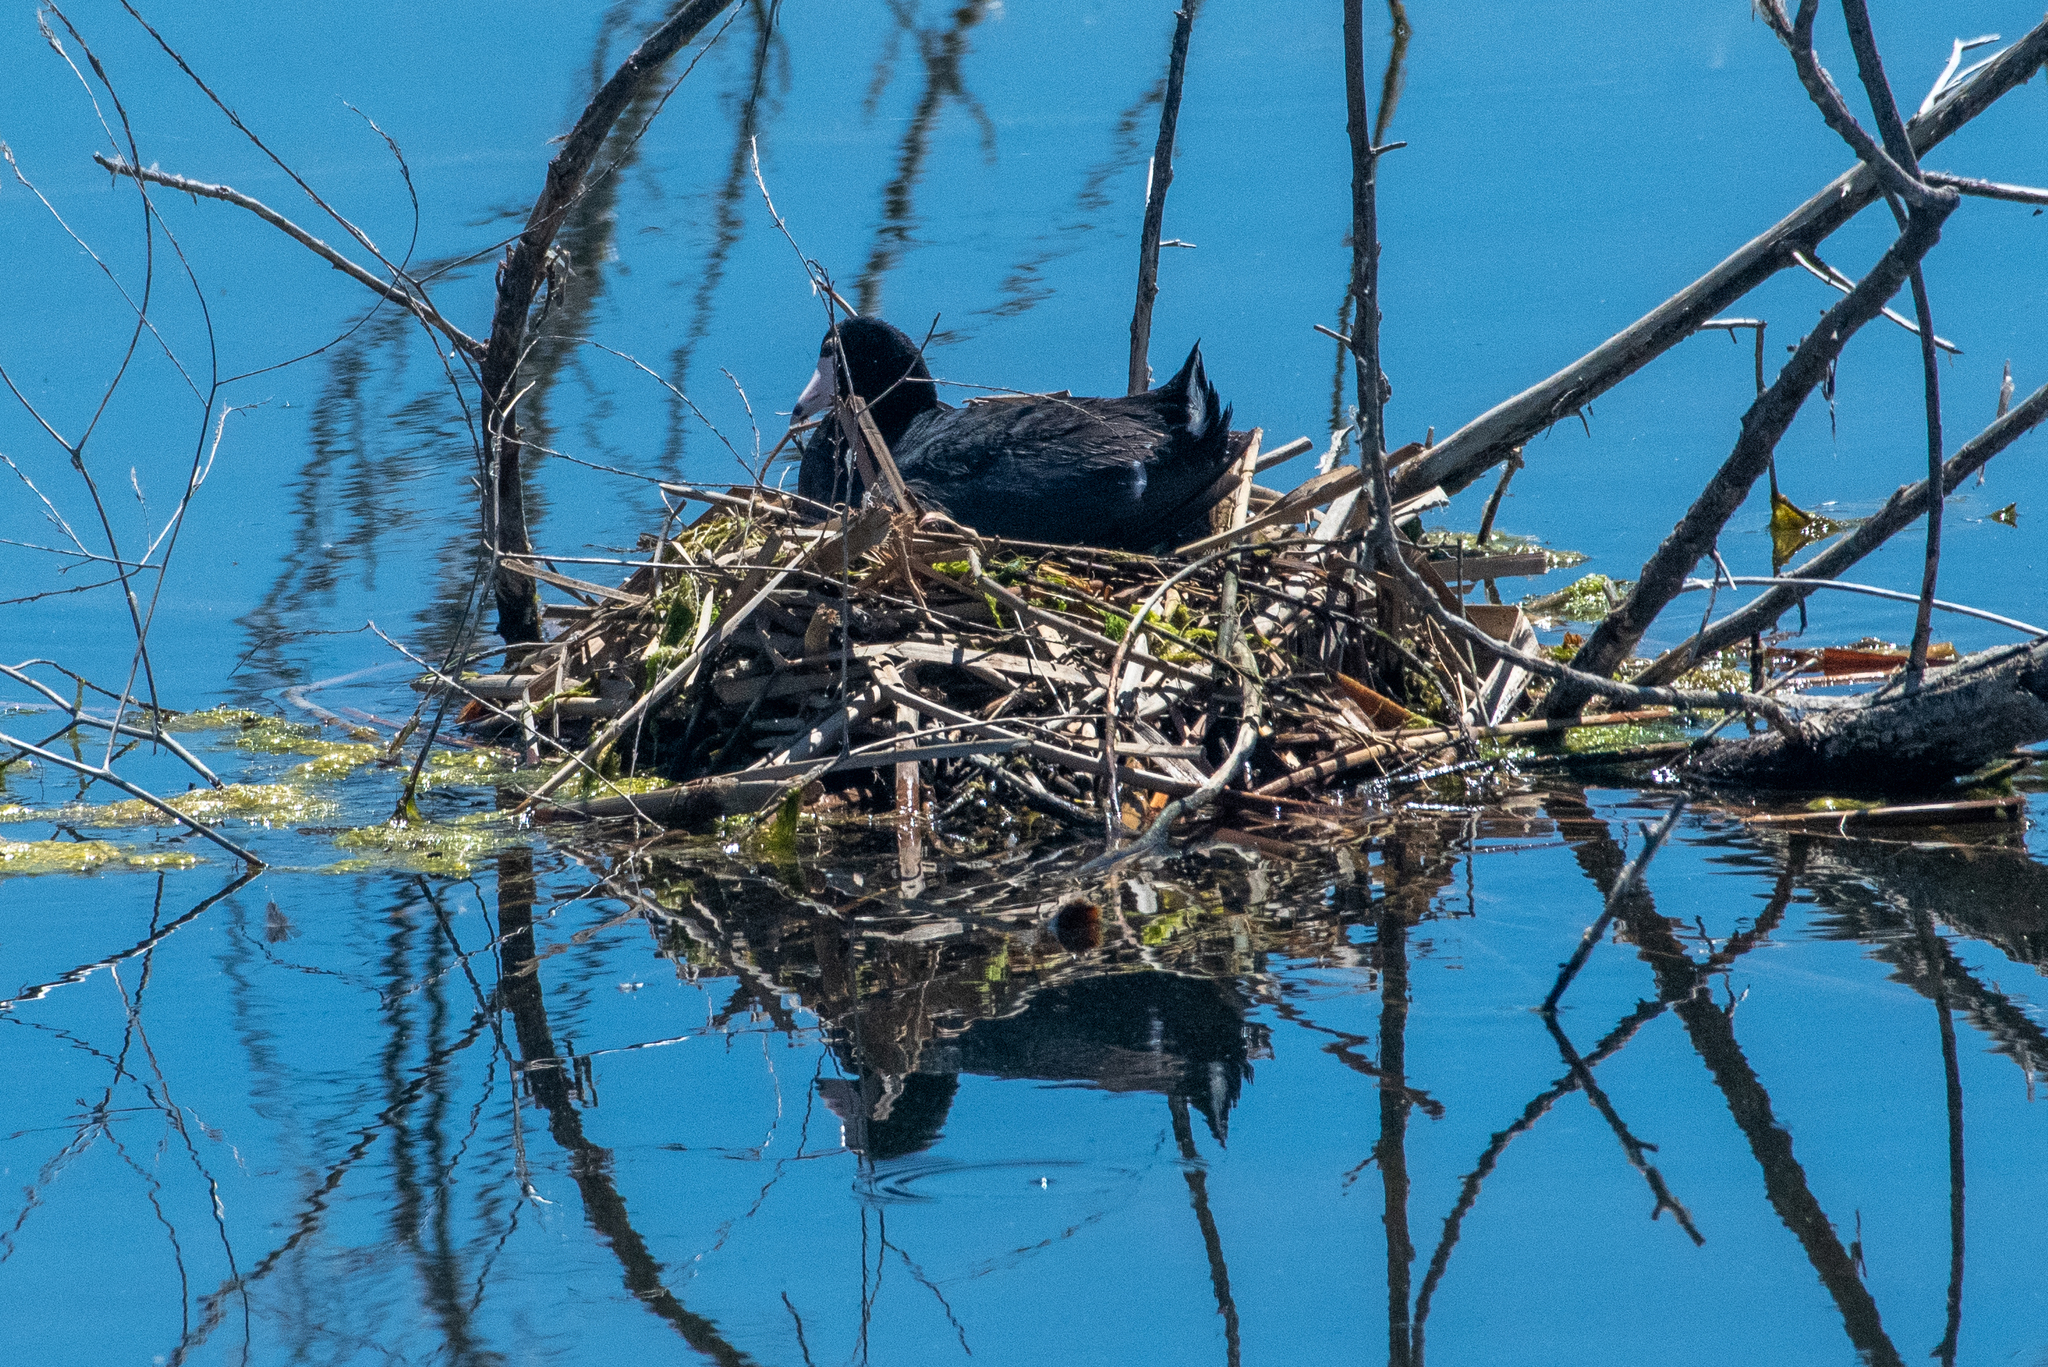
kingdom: Animalia
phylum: Chordata
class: Aves
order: Gruiformes
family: Rallidae
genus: Fulica
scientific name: Fulica americana
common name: American coot
